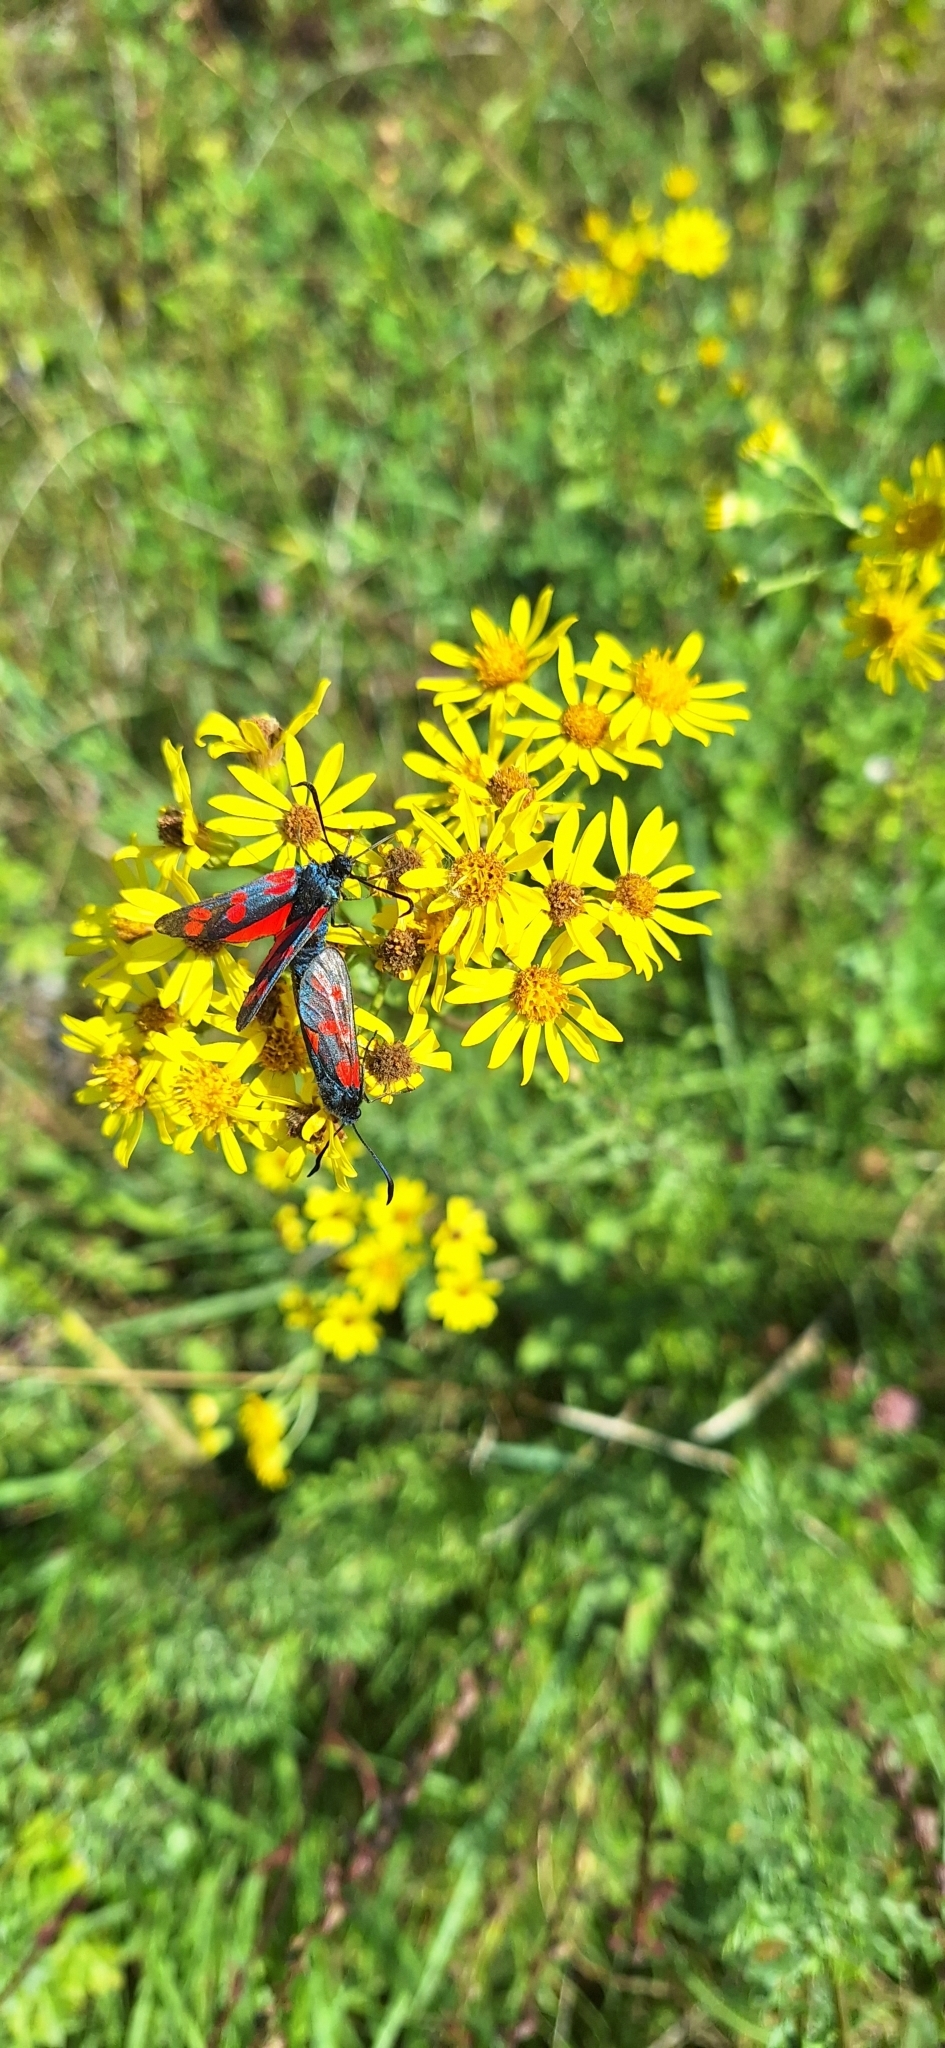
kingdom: Animalia
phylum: Arthropoda
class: Insecta
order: Lepidoptera
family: Zygaenidae
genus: Zygaena
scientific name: Zygaena filipendulae
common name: Six-spot burnet
